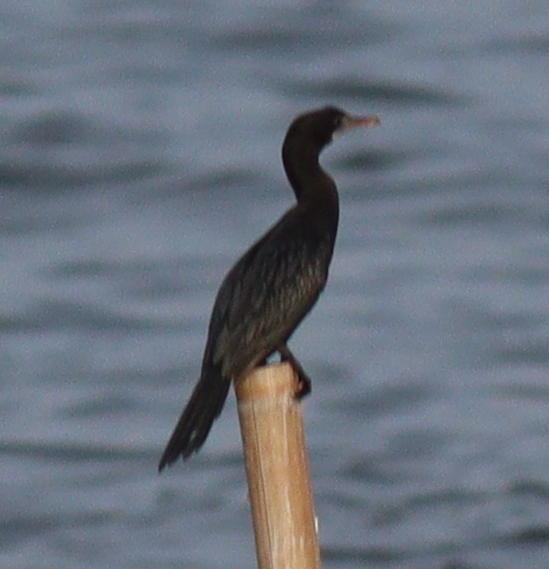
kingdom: Animalia
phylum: Chordata
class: Aves
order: Suliformes
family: Phalacrocoracidae
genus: Microcarbo
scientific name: Microcarbo niger
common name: Little cormorant
